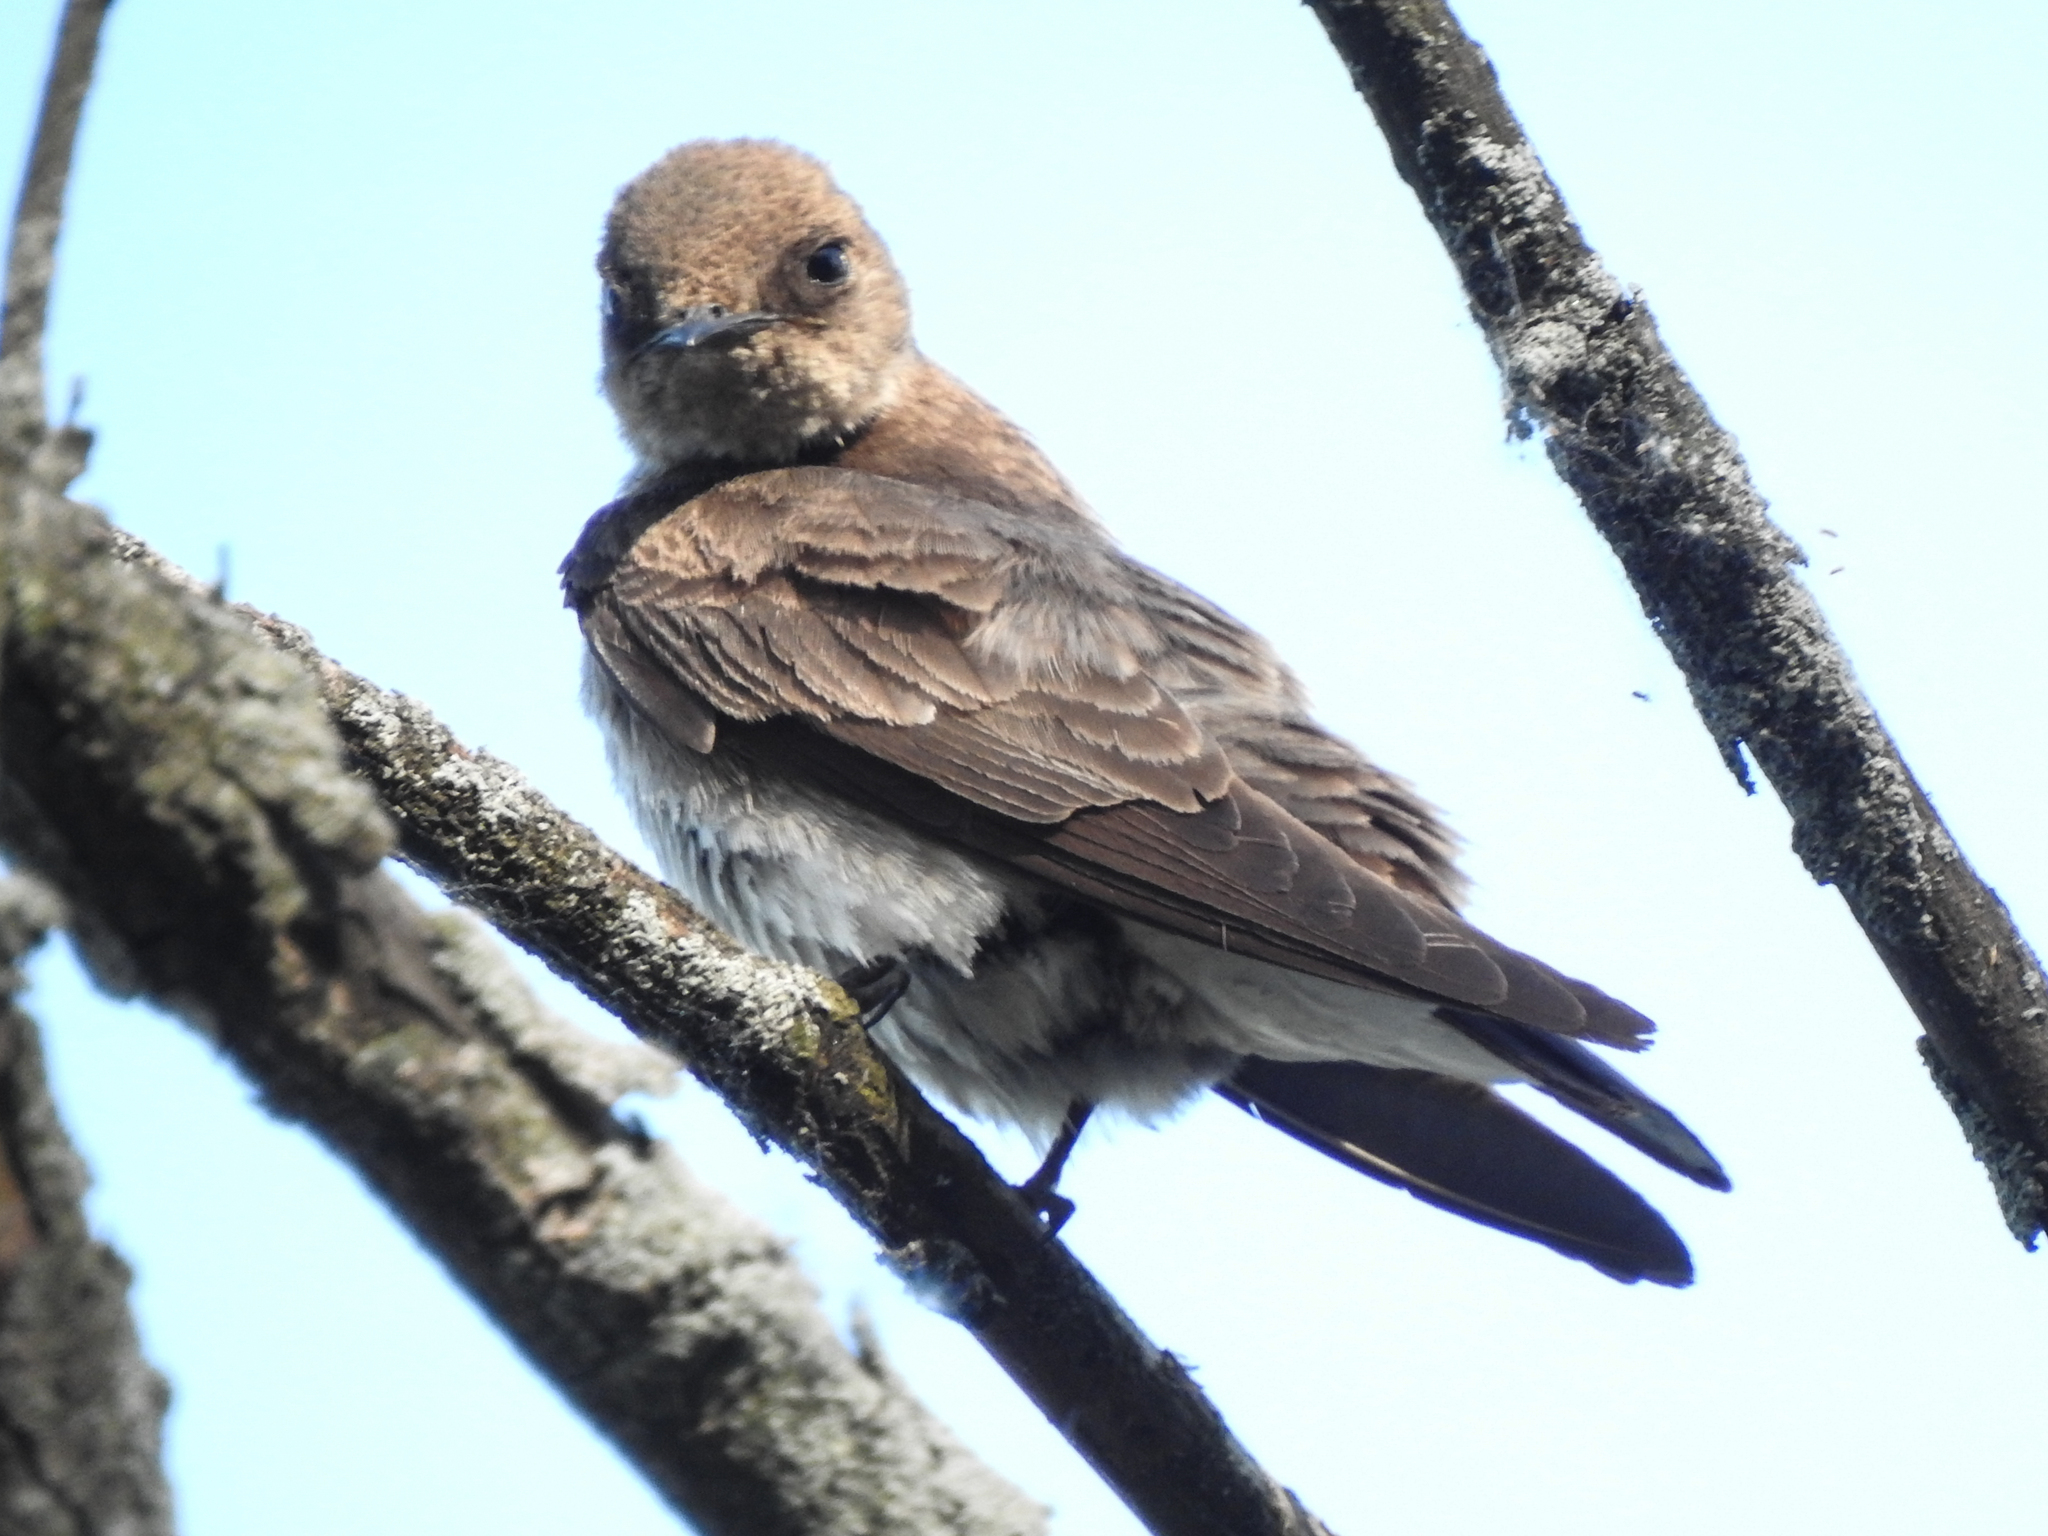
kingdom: Animalia
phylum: Chordata
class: Aves
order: Passeriformes
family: Hirundinidae
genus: Stelgidopteryx
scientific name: Stelgidopteryx serripennis
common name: Northern rough-winged swallow
